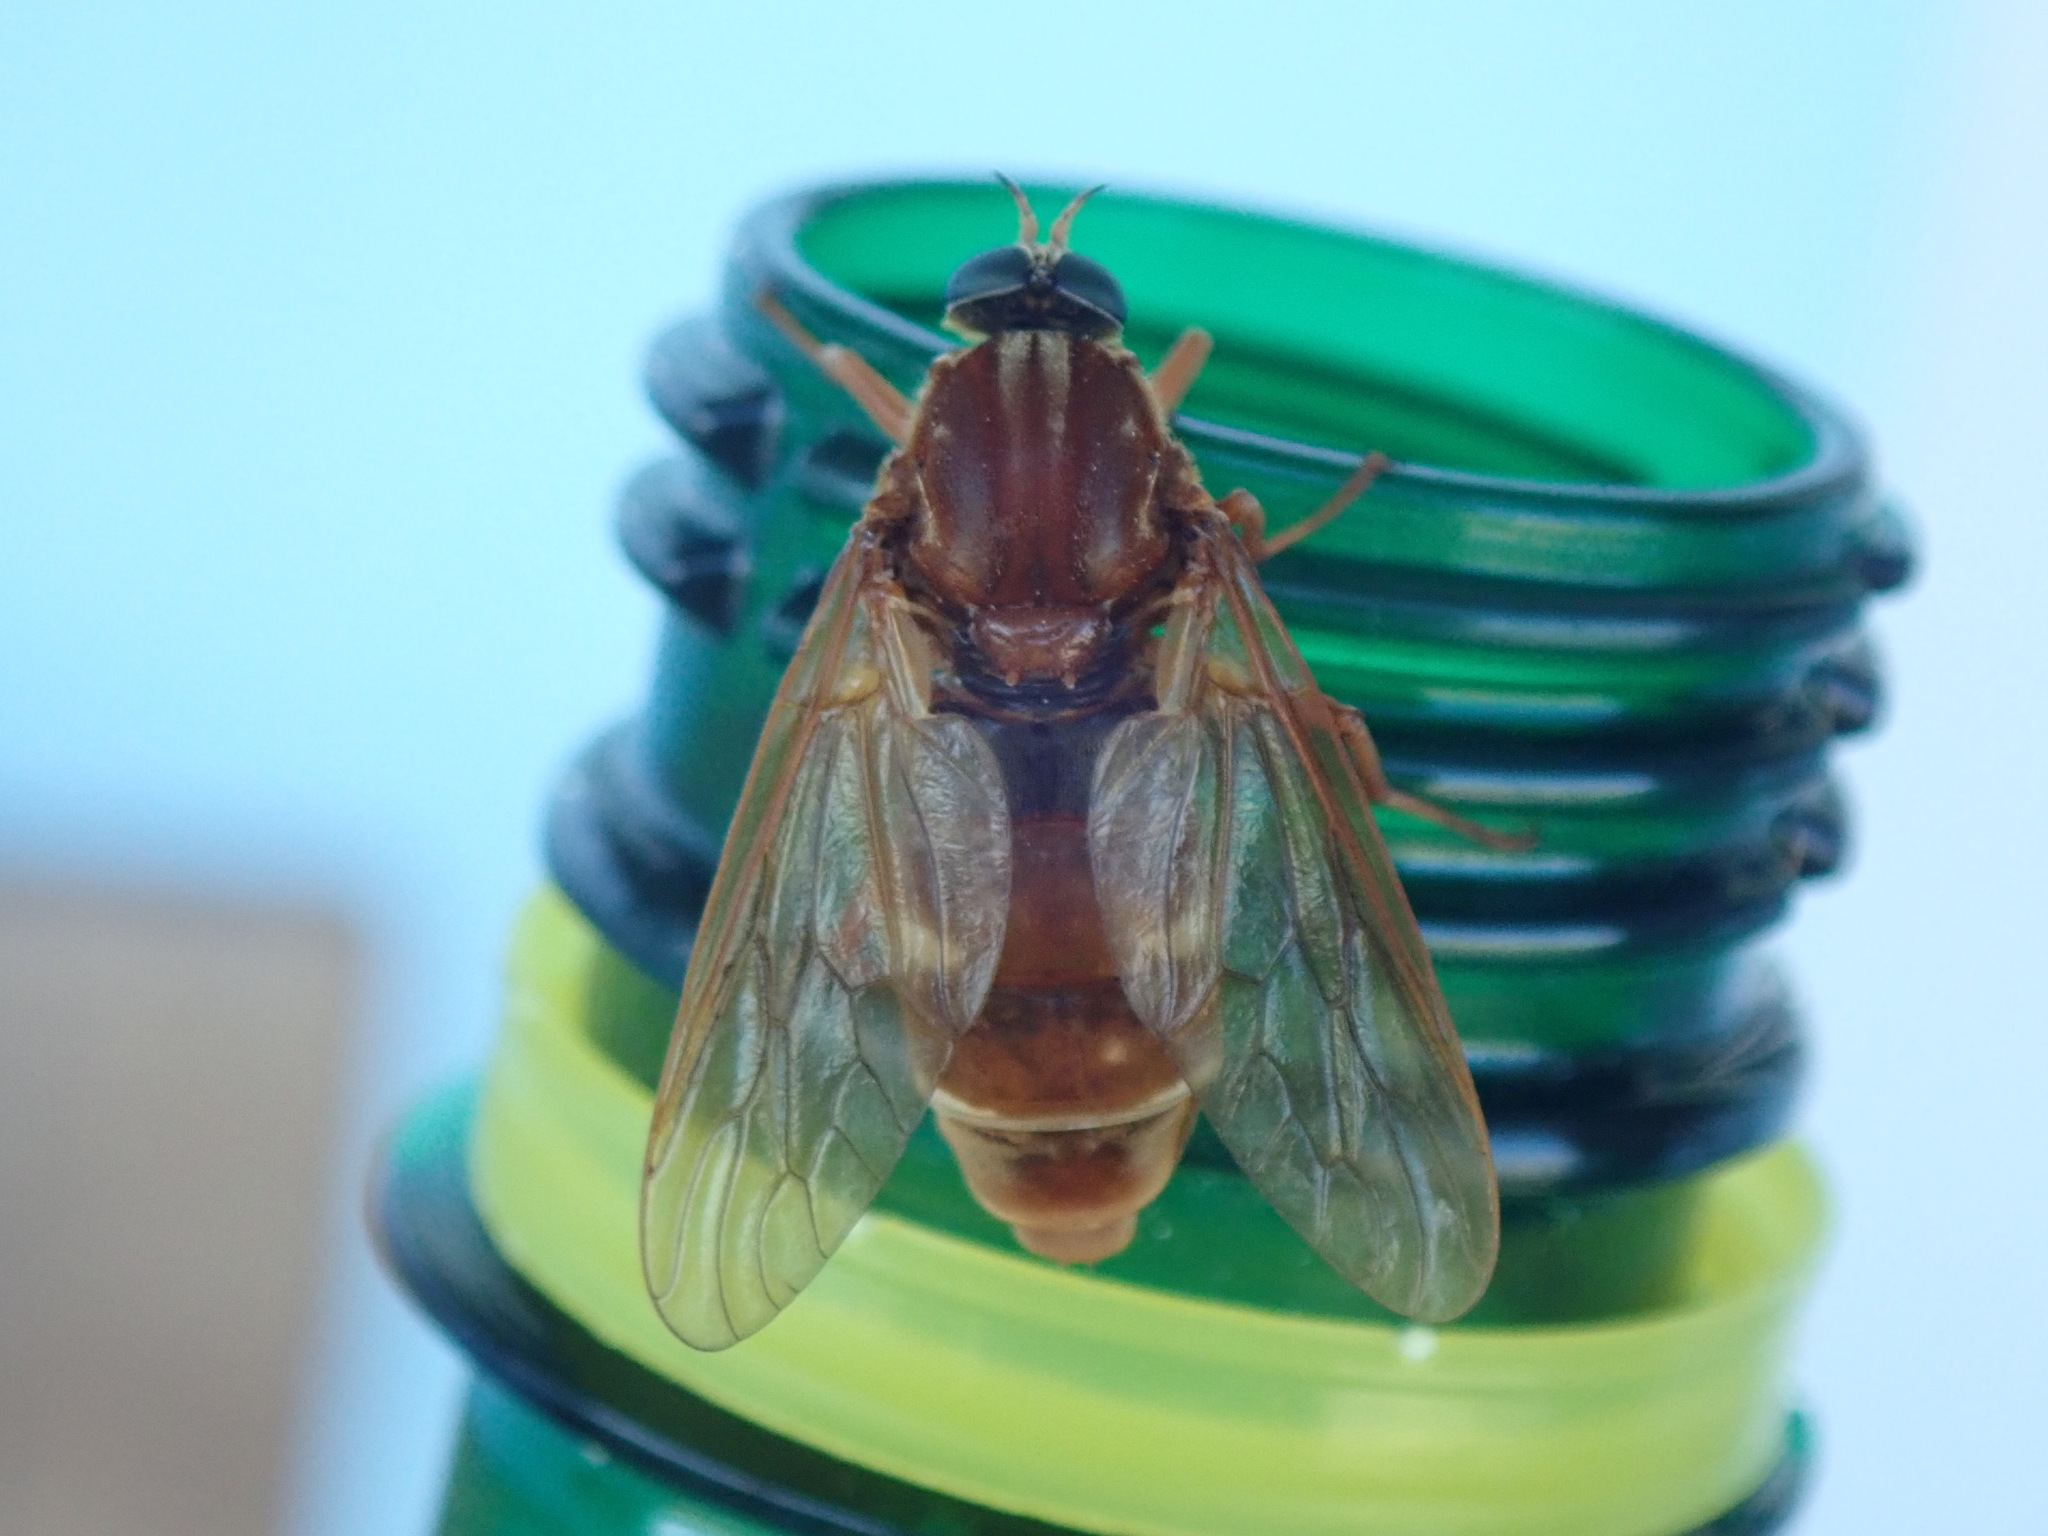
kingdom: Animalia
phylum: Arthropoda
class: Insecta
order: Diptera
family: Xylophagidae
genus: Coenomyia
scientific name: Coenomyia ferruginea
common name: Stink fly
